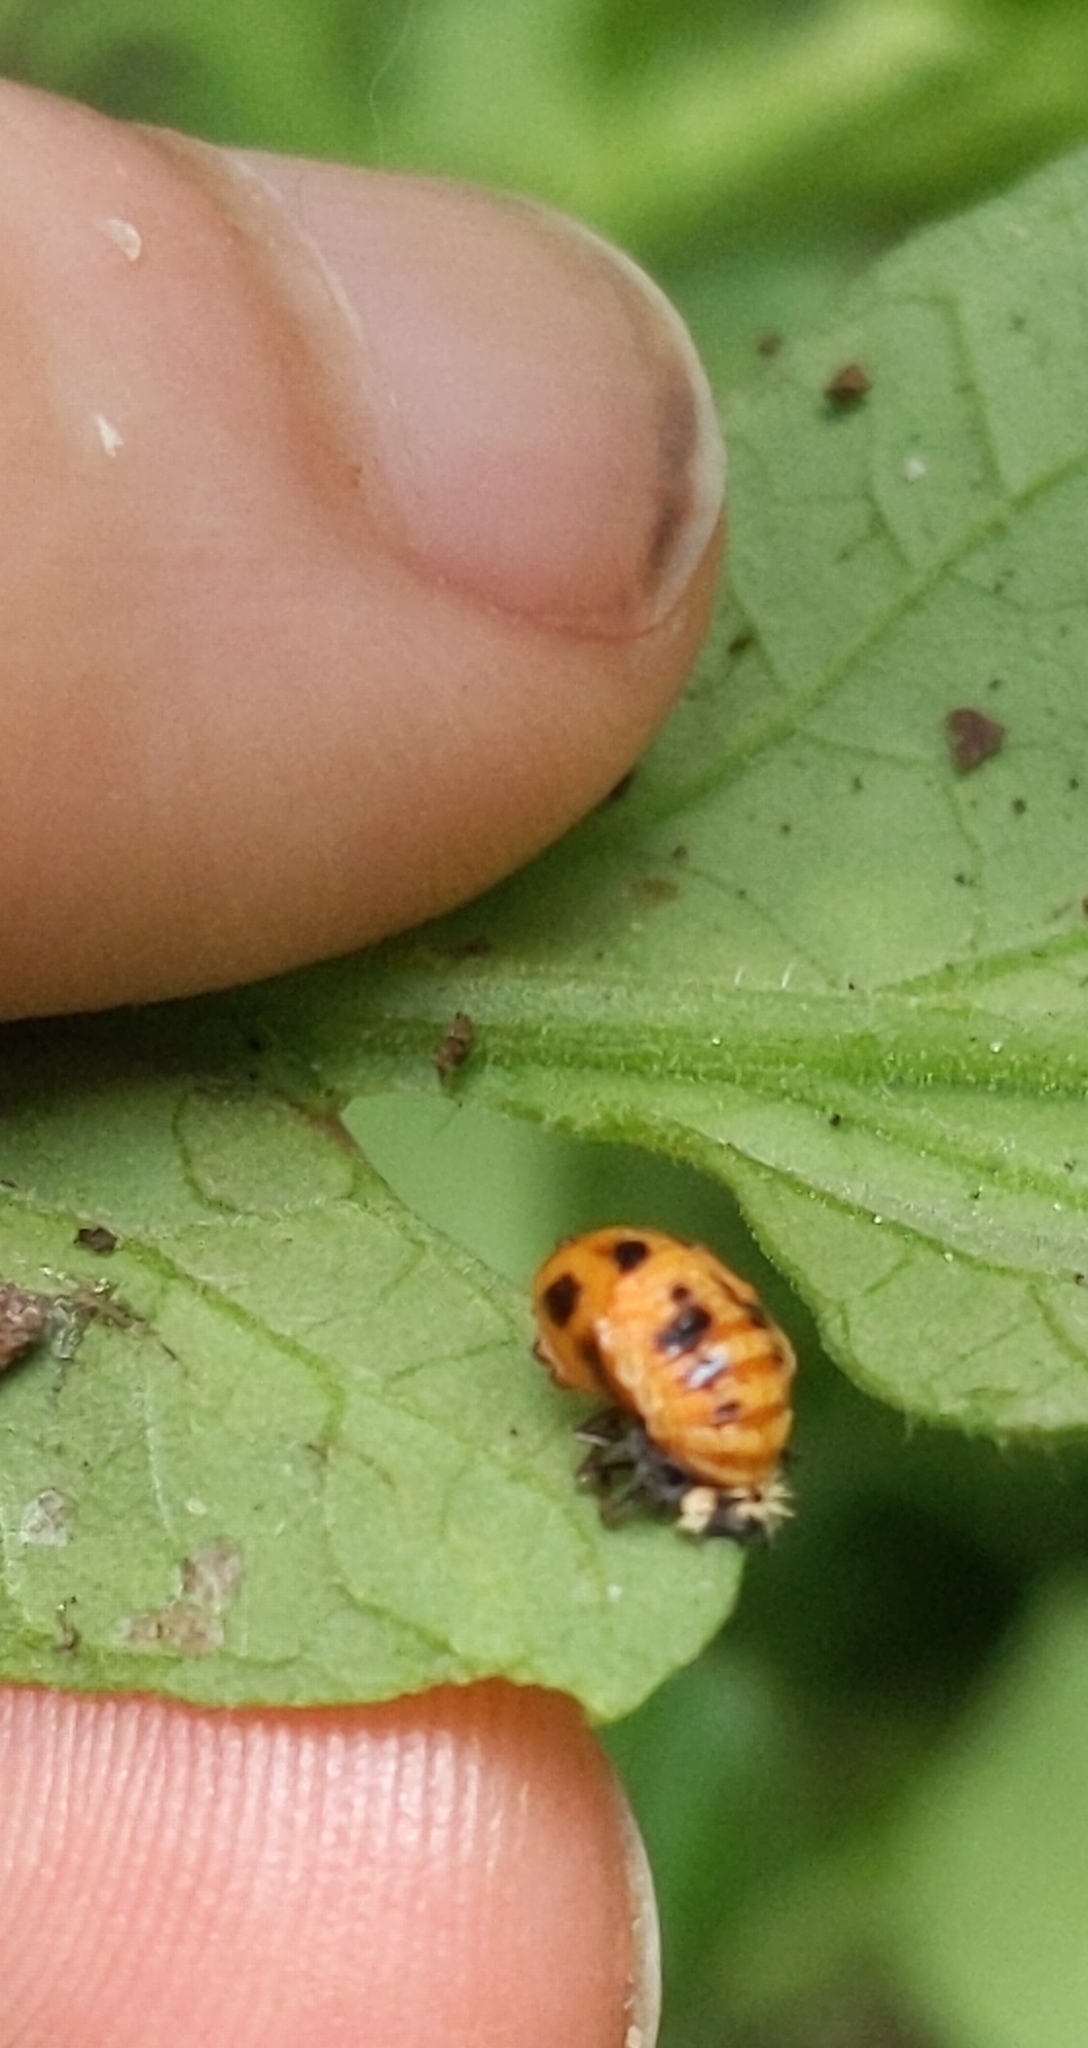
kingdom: Animalia
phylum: Arthropoda
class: Insecta
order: Coleoptera
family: Coccinellidae
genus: Harmonia
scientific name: Harmonia axyridis
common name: Harlequin ladybird
